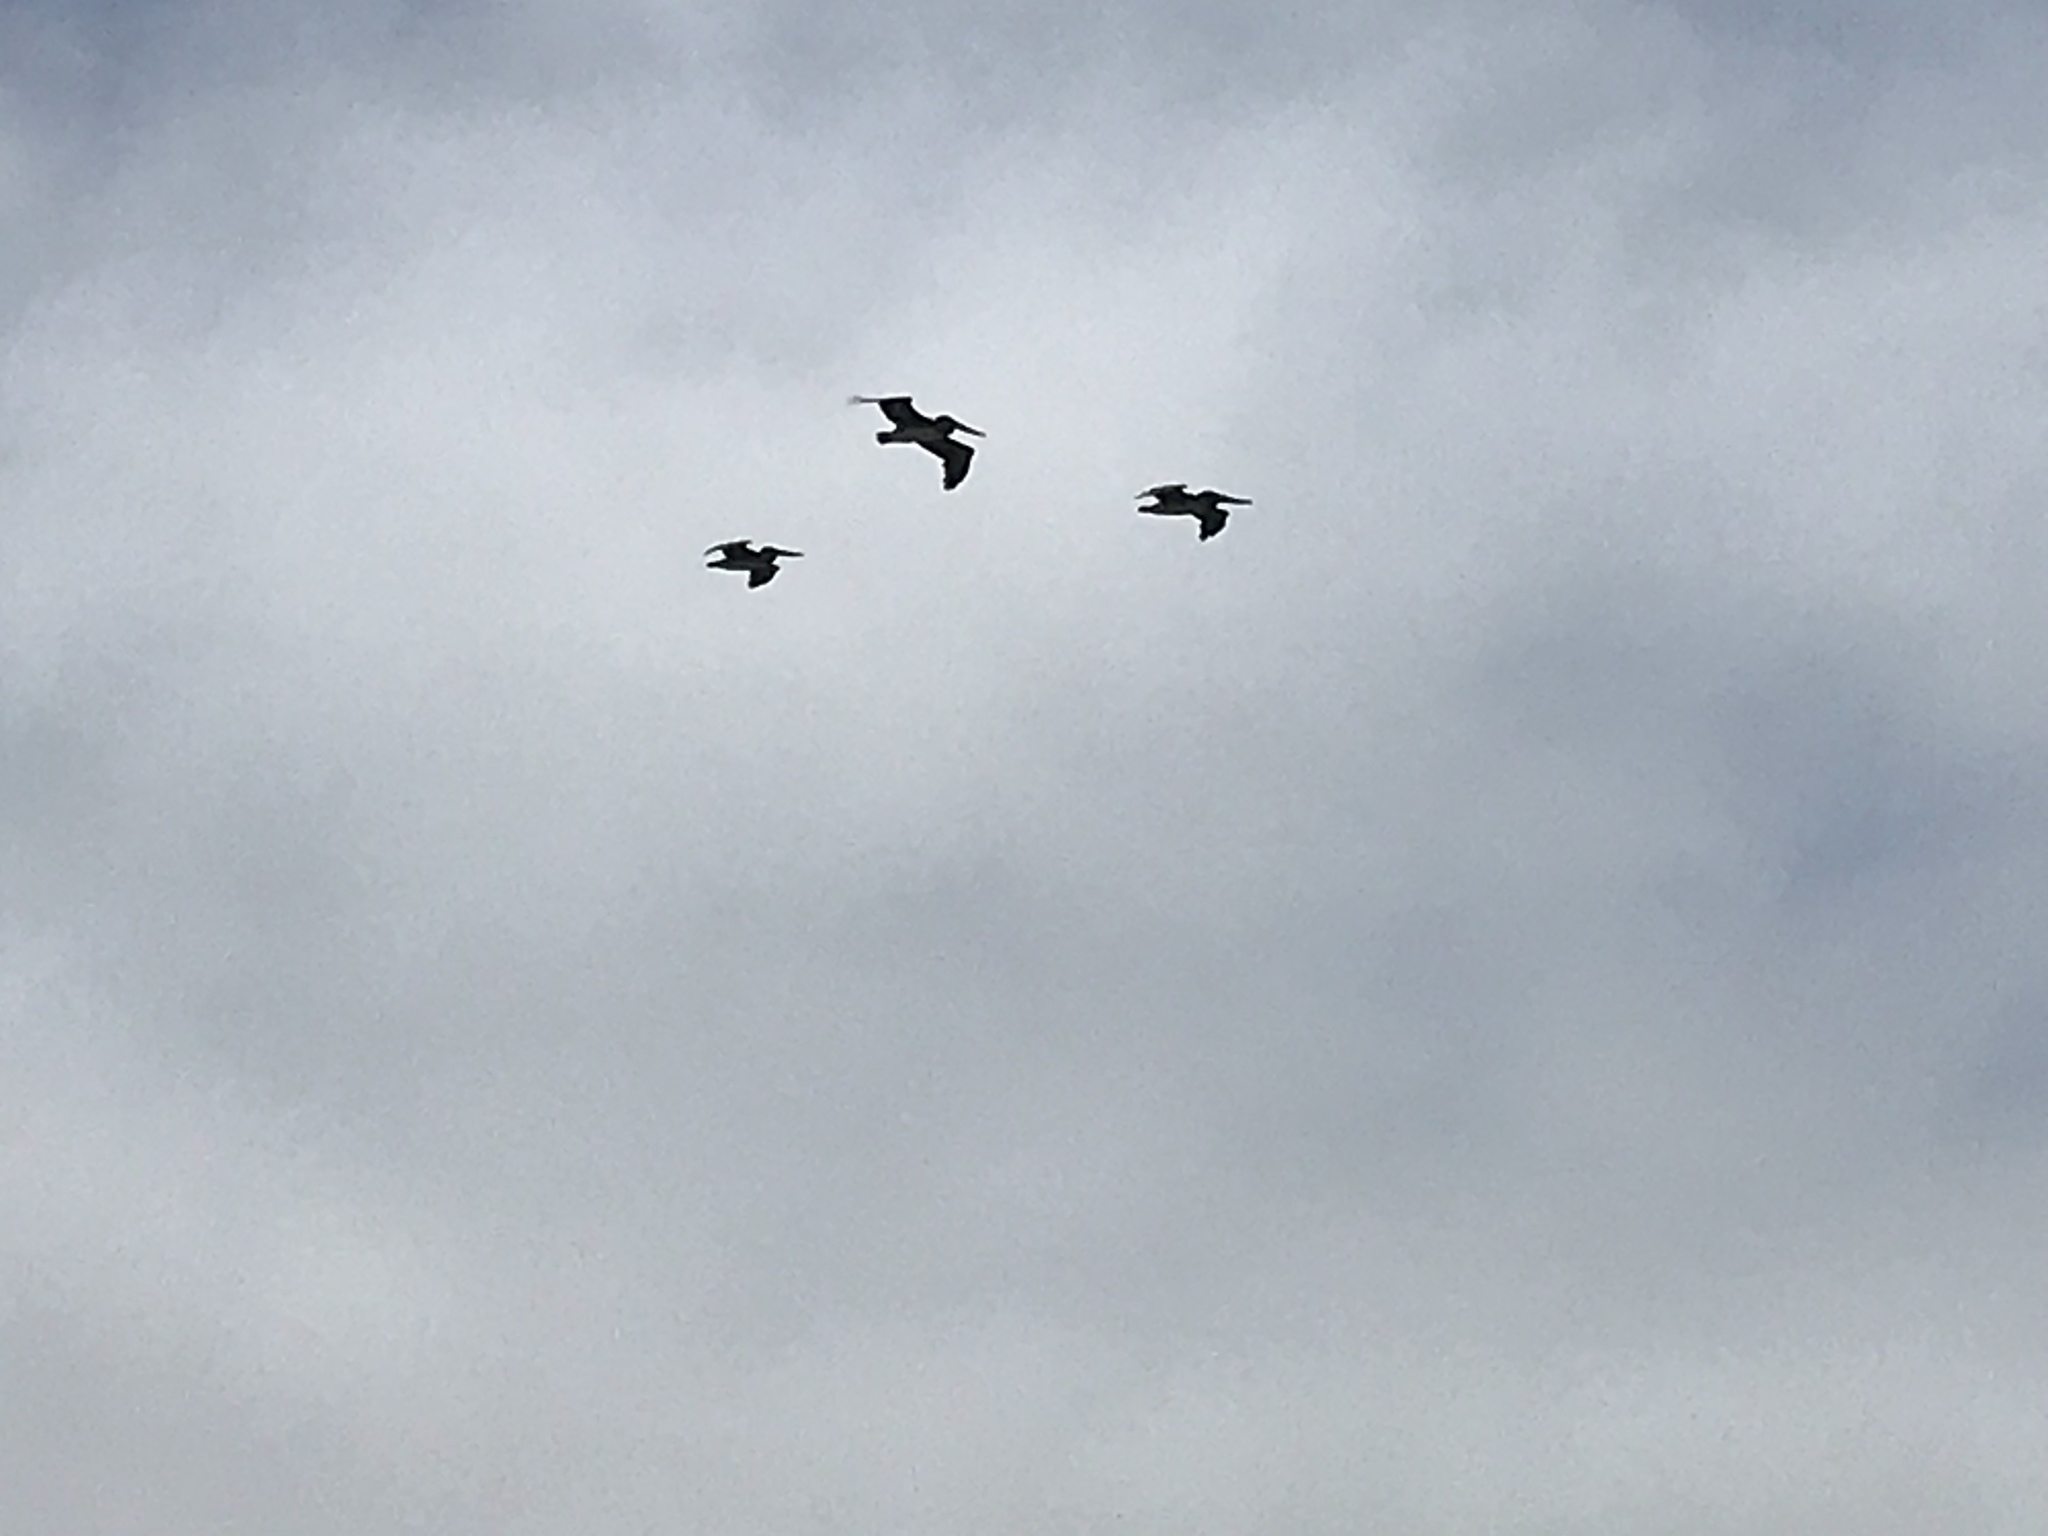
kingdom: Animalia
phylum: Chordata
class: Aves
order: Pelecaniformes
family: Pelecanidae
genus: Pelecanus
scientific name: Pelecanus occidentalis
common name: Brown pelican
